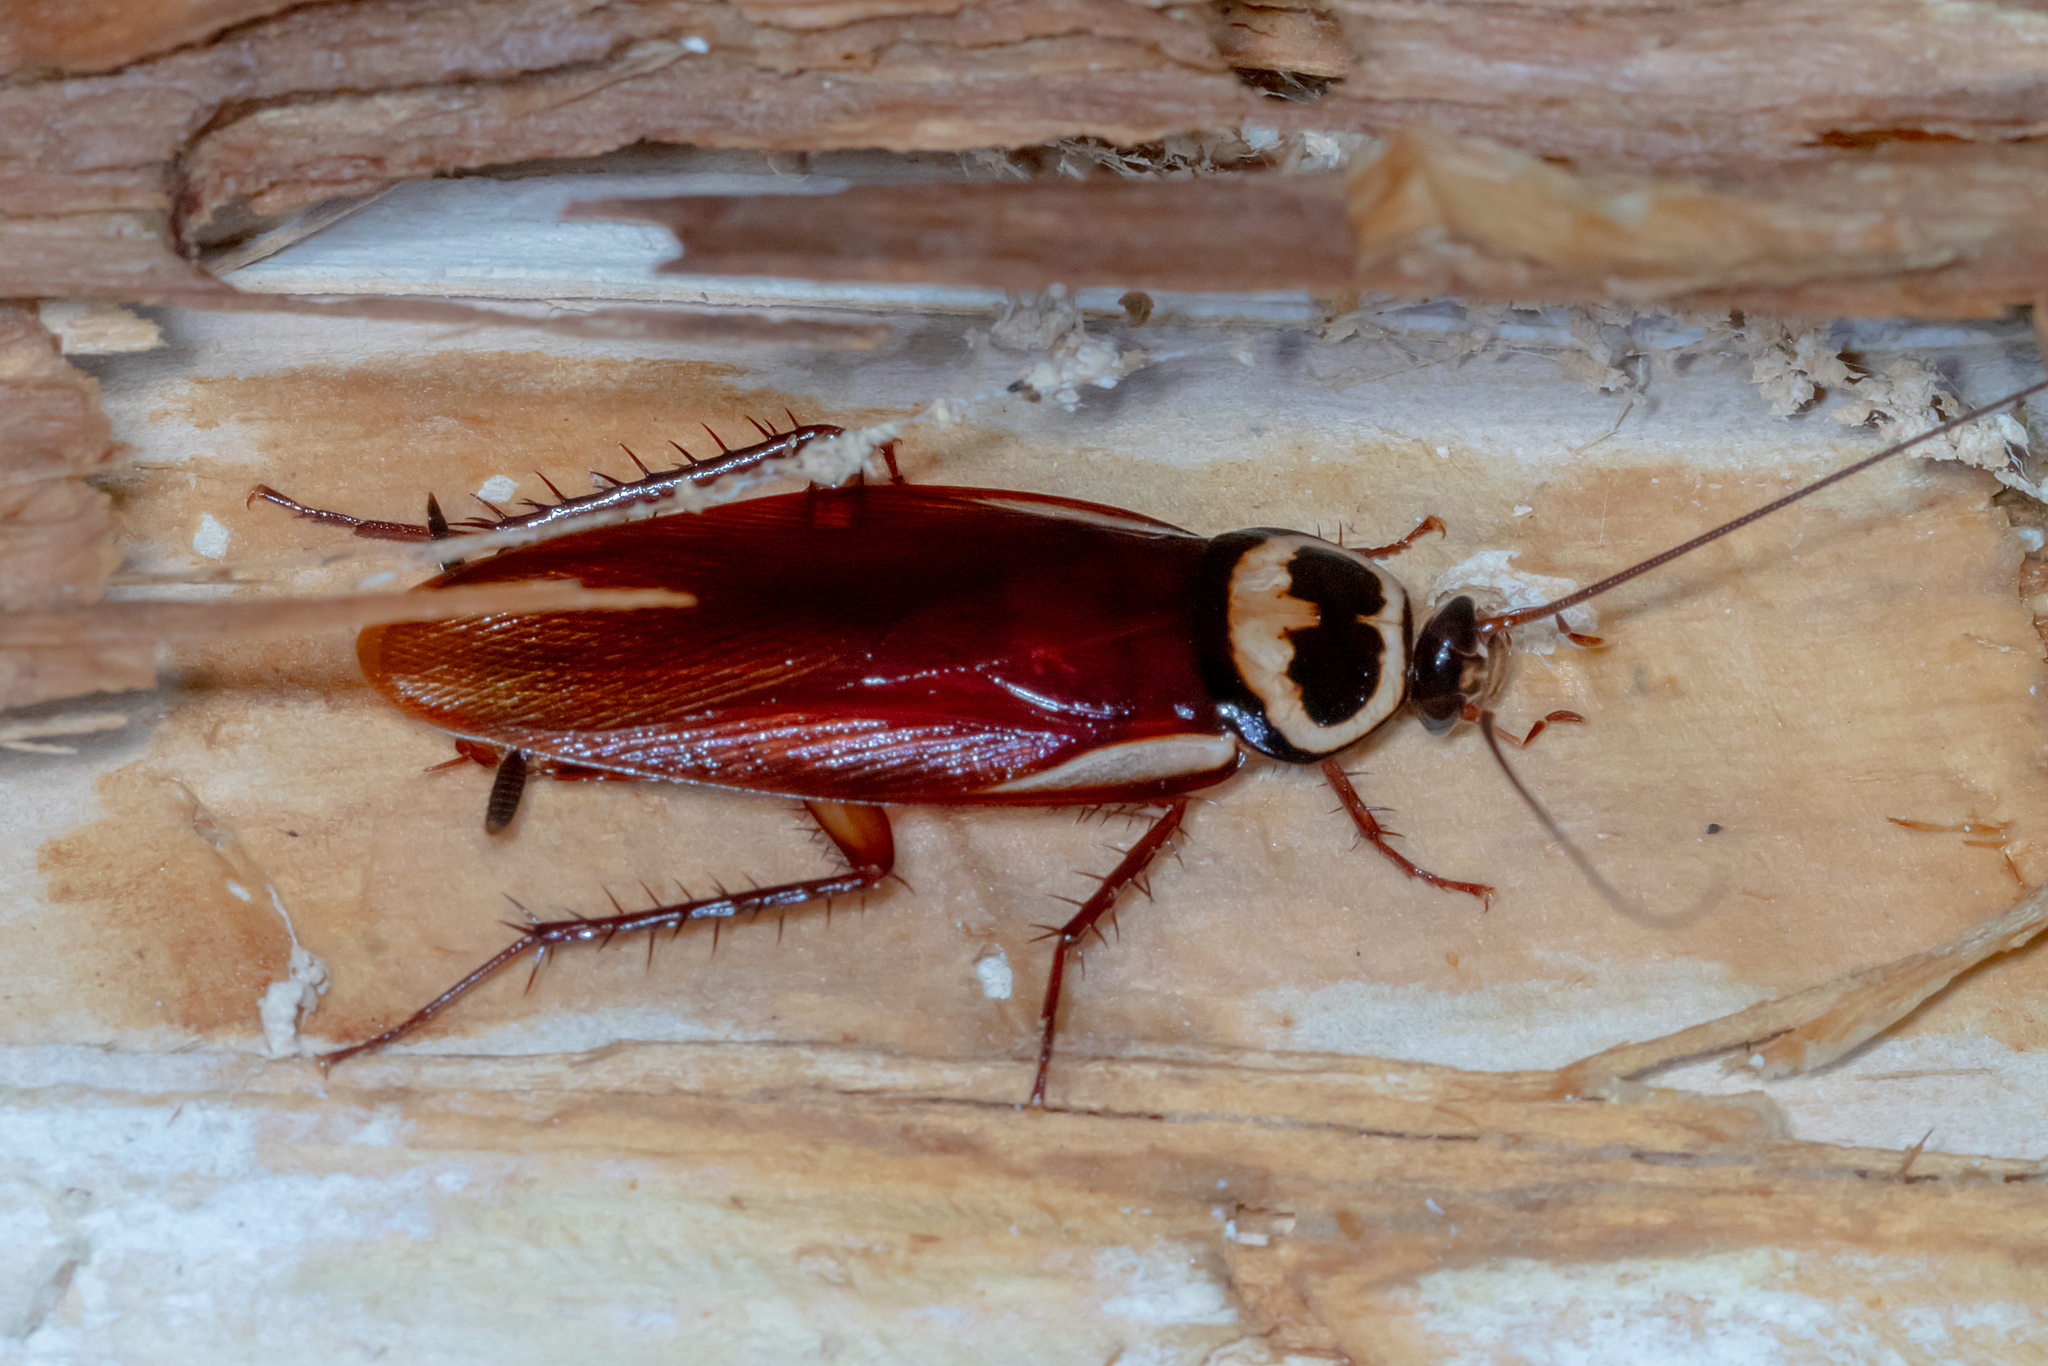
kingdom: Animalia
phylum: Arthropoda
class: Insecta
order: Blattodea
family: Blattidae
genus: Periplaneta
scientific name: Periplaneta australasiae
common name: Australian cockroach
